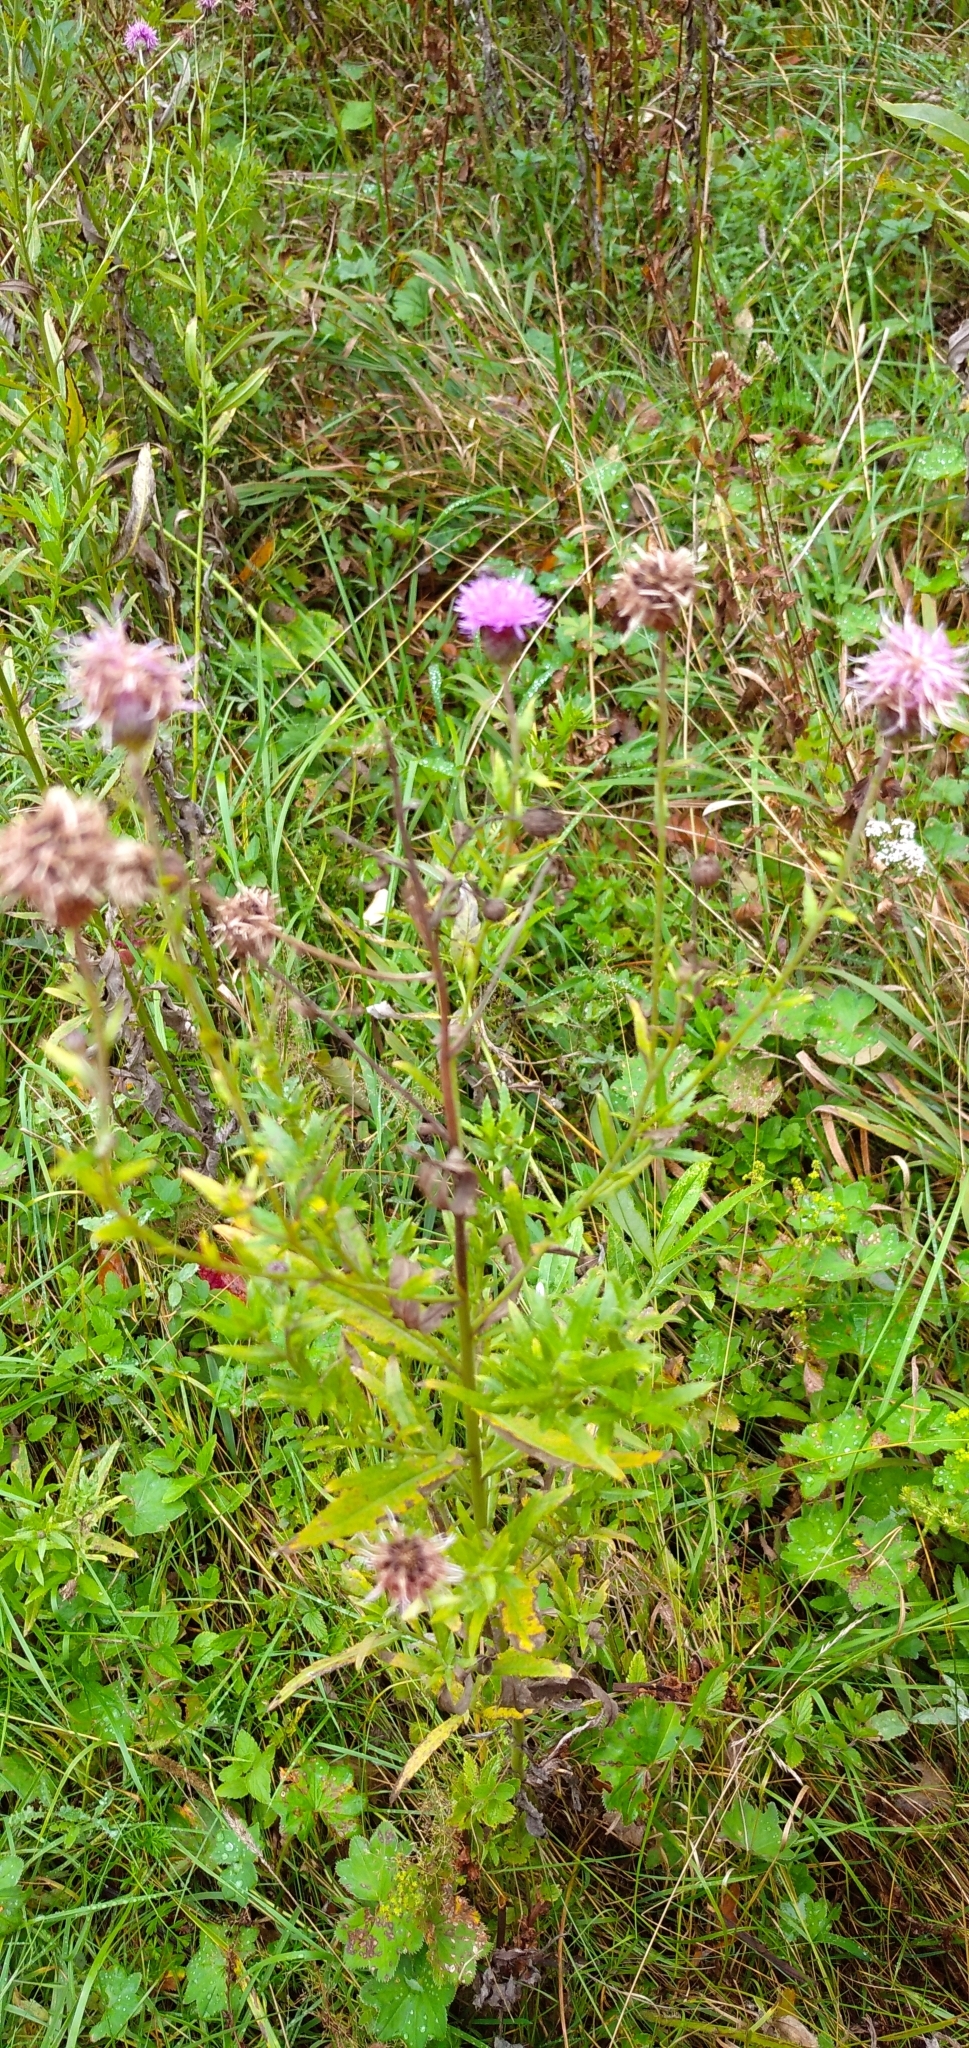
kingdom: Plantae
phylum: Tracheophyta
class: Magnoliopsida
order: Asterales
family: Asteraceae
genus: Cirsium
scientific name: Cirsium arvense
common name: Creeping thistle
